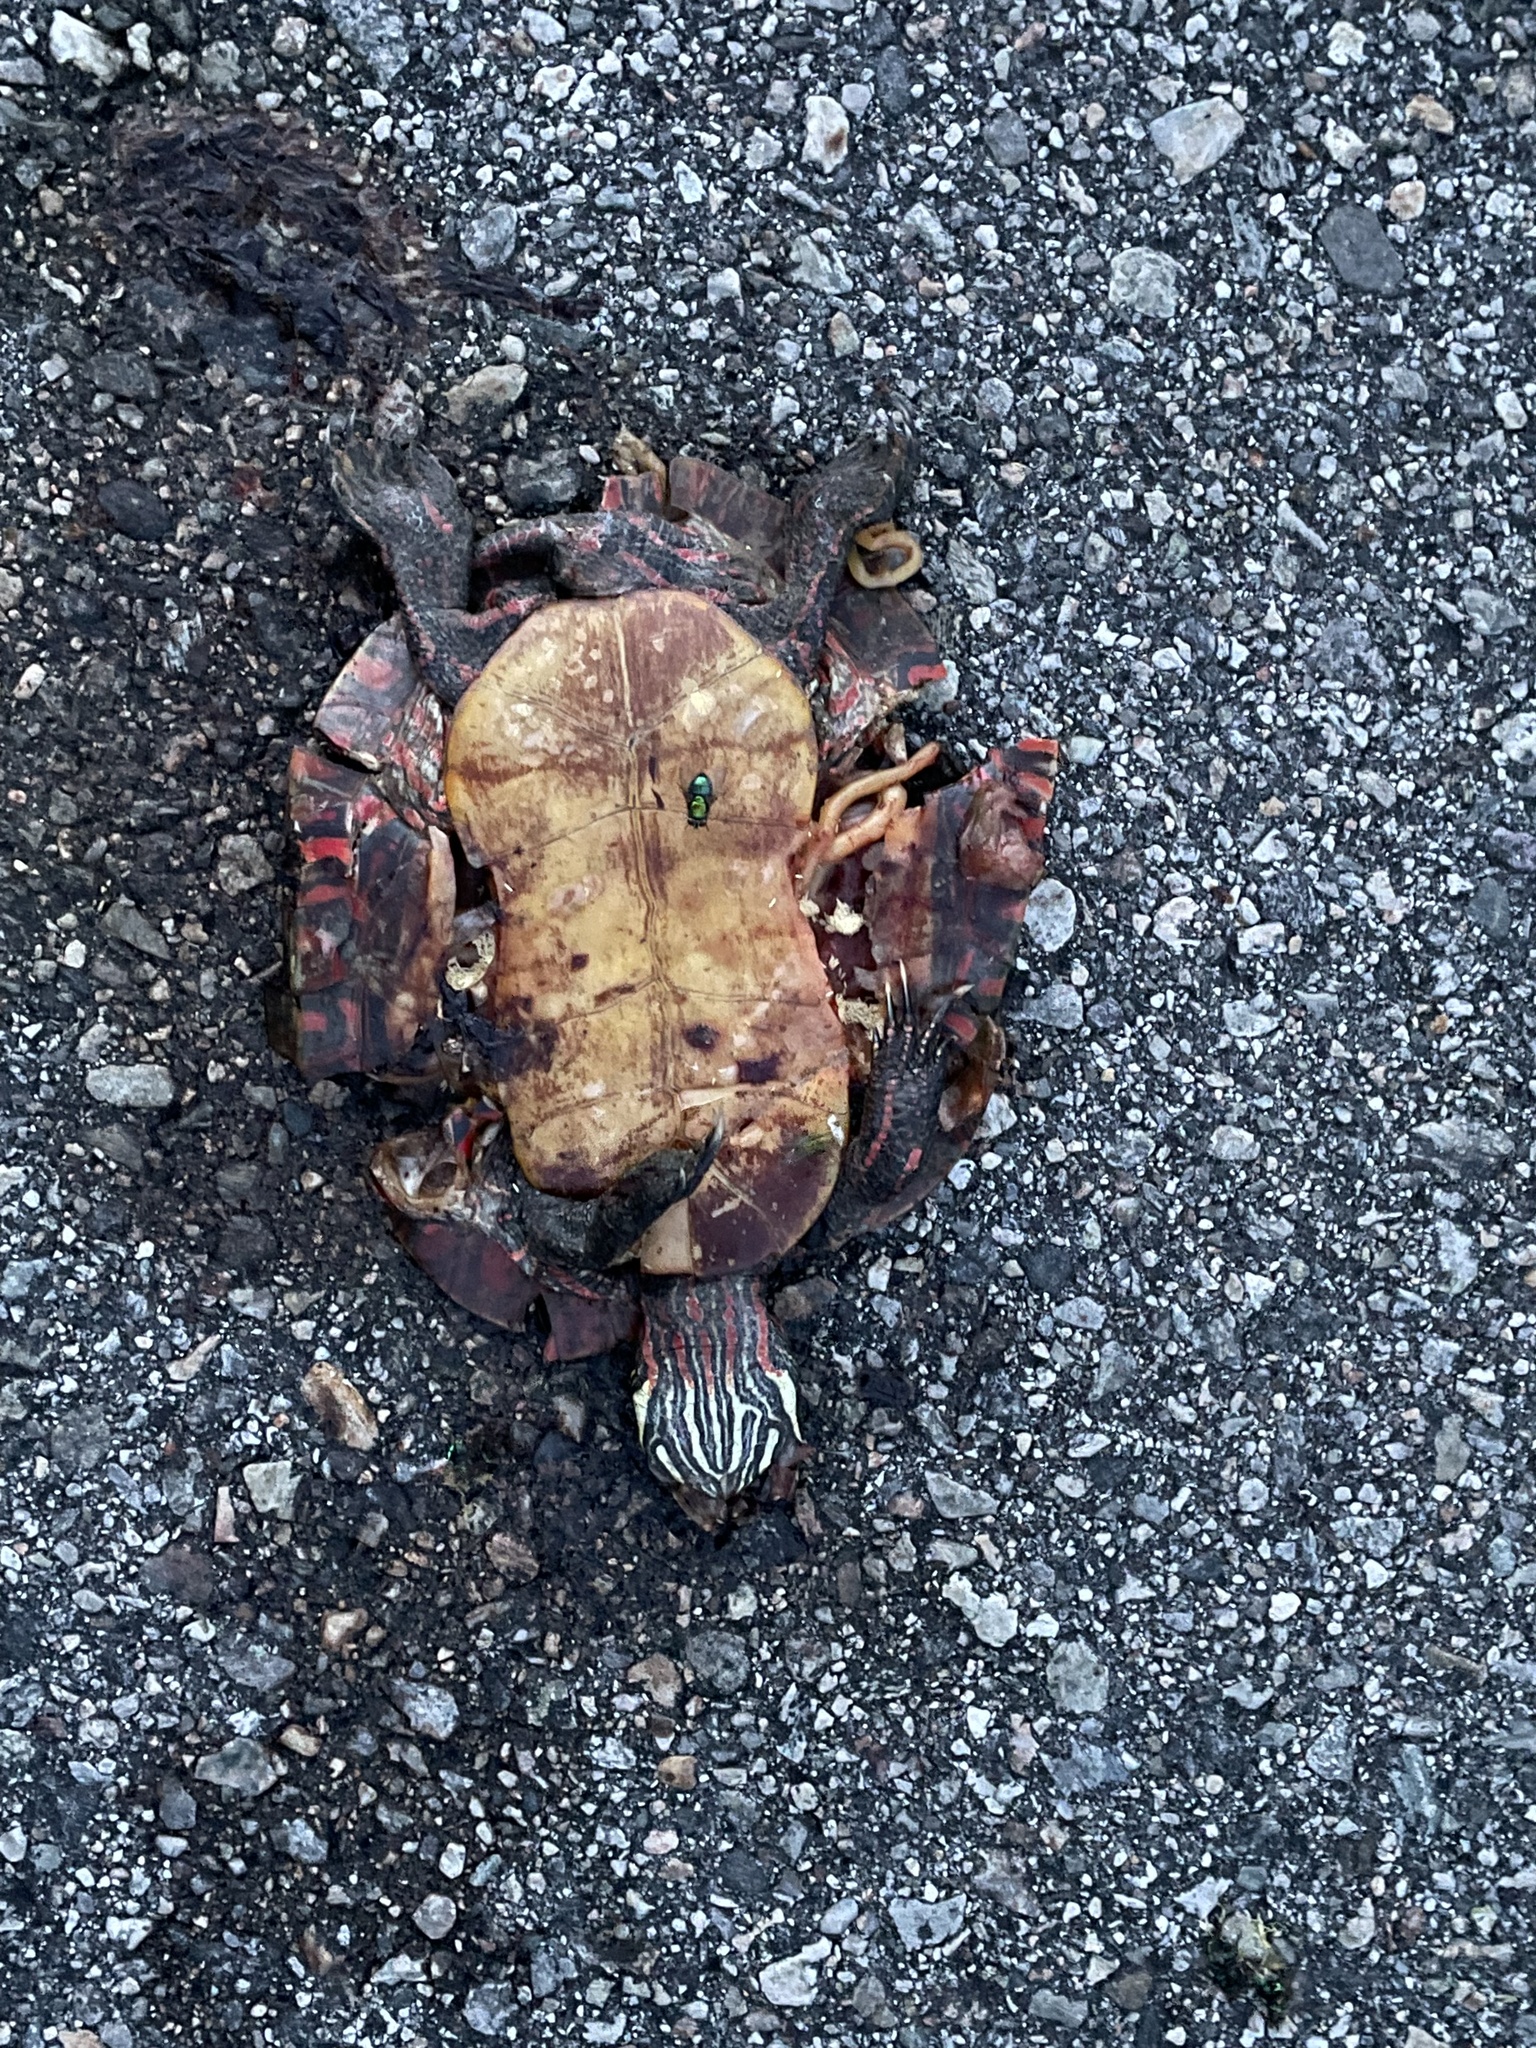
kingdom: Animalia
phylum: Chordata
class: Testudines
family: Emydidae
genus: Chrysemys
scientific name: Chrysemys picta
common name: Painted turtle
